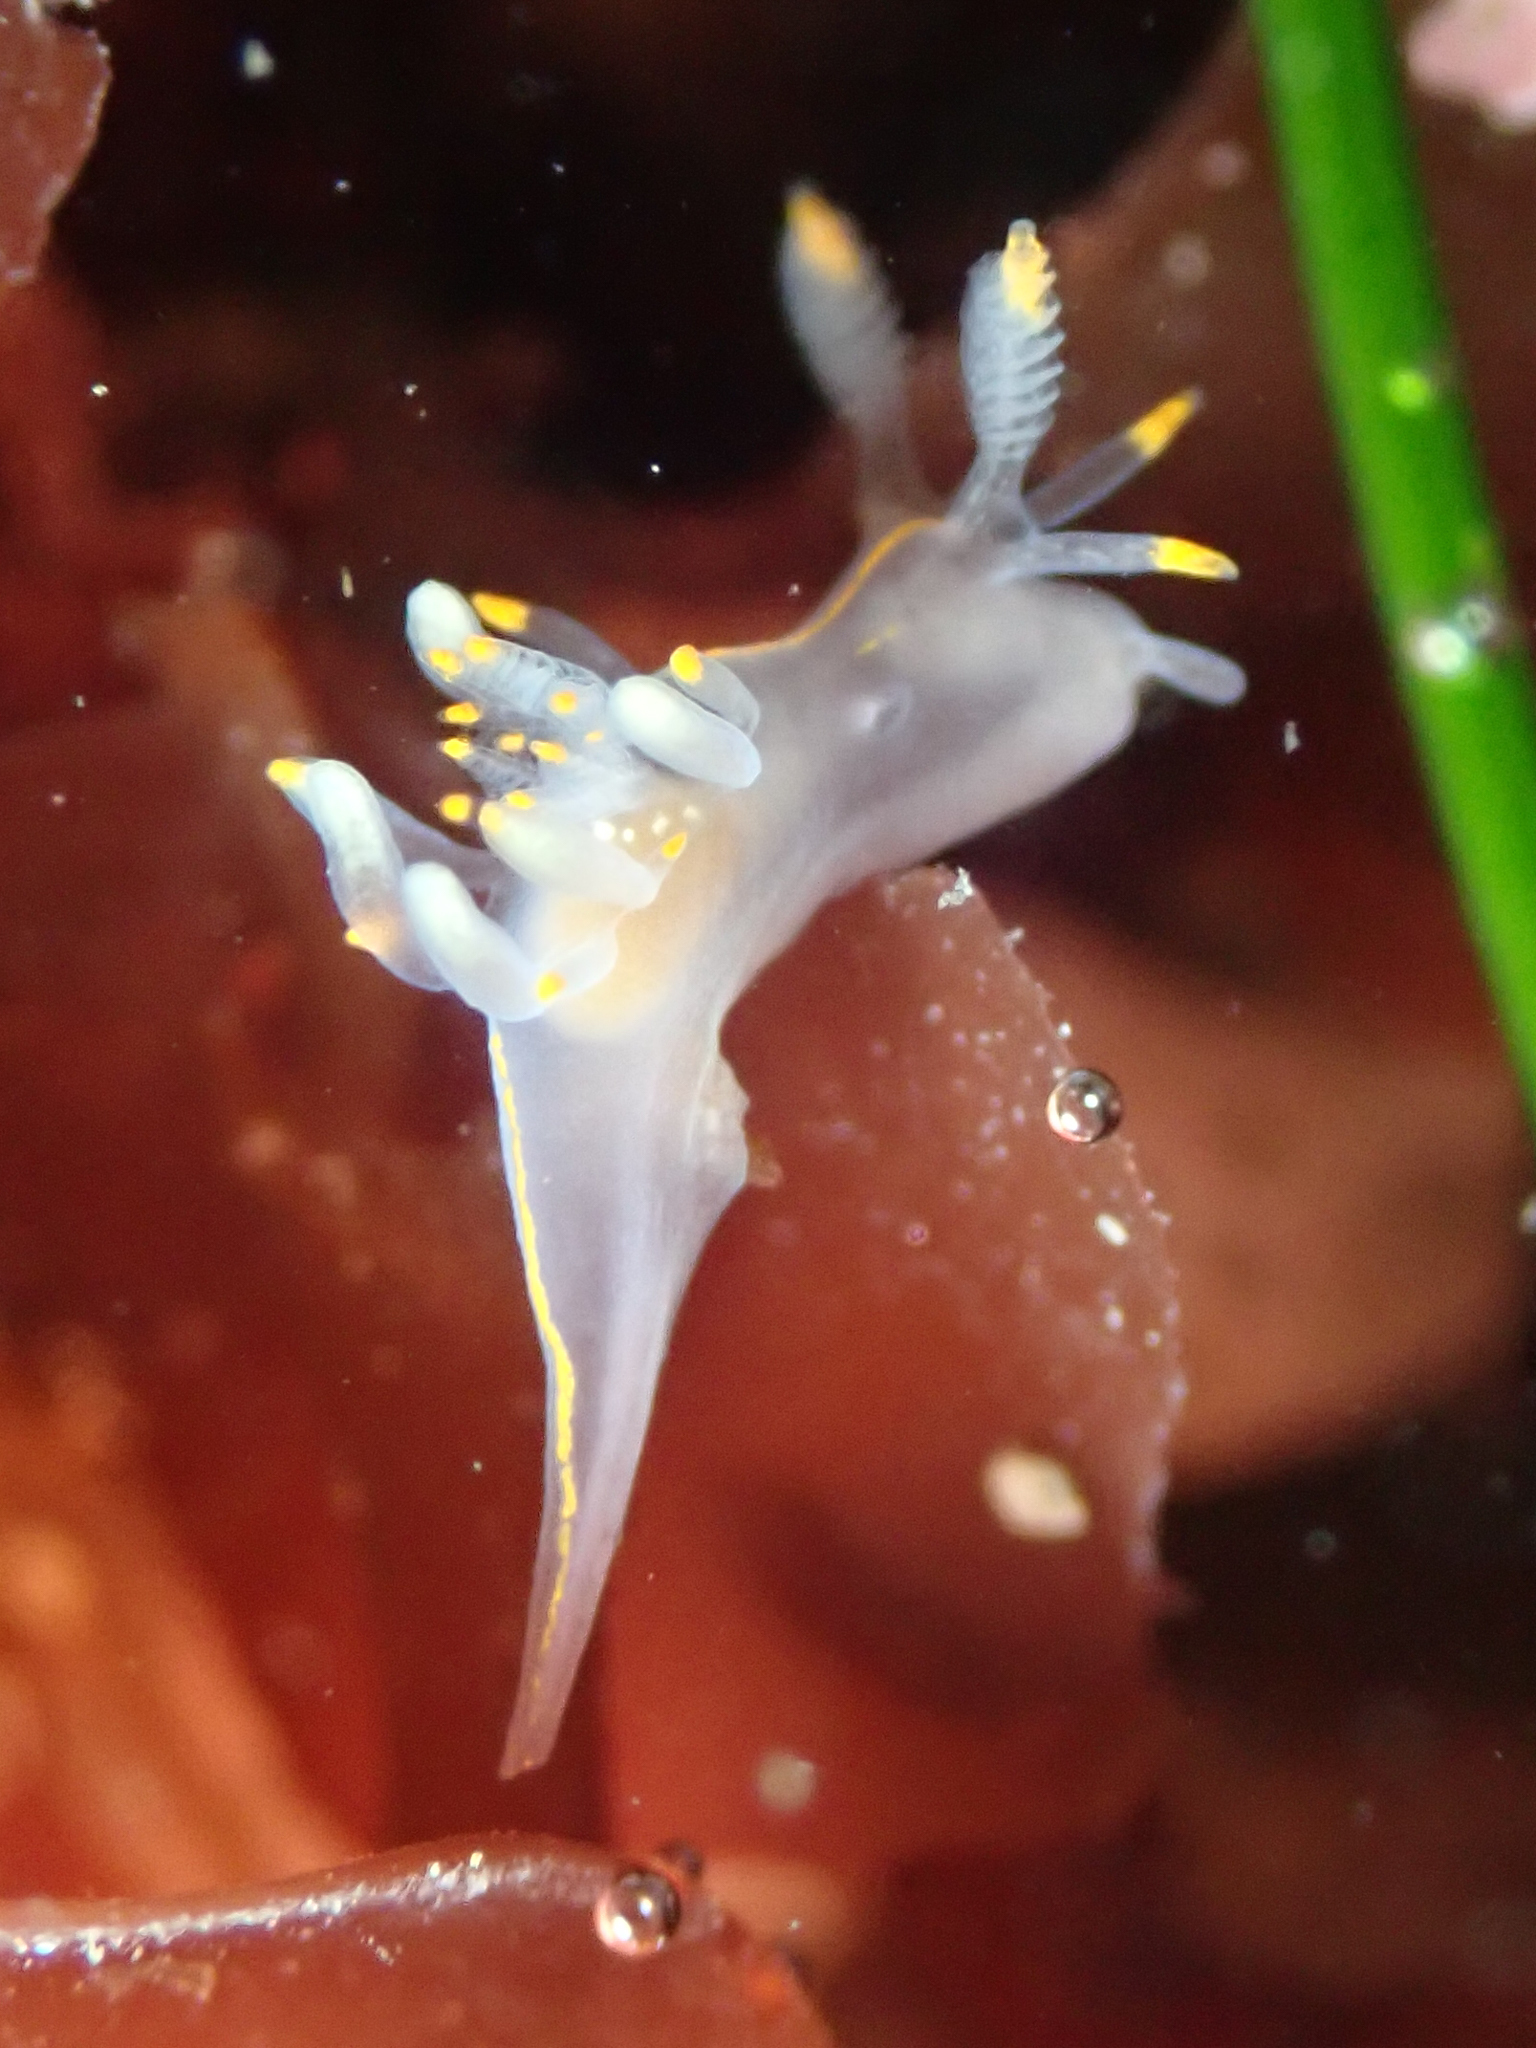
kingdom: Animalia
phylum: Mollusca
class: Gastropoda
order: Nudibranchia
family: Goniodorididae
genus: Ancula
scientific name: Ancula pacifica
